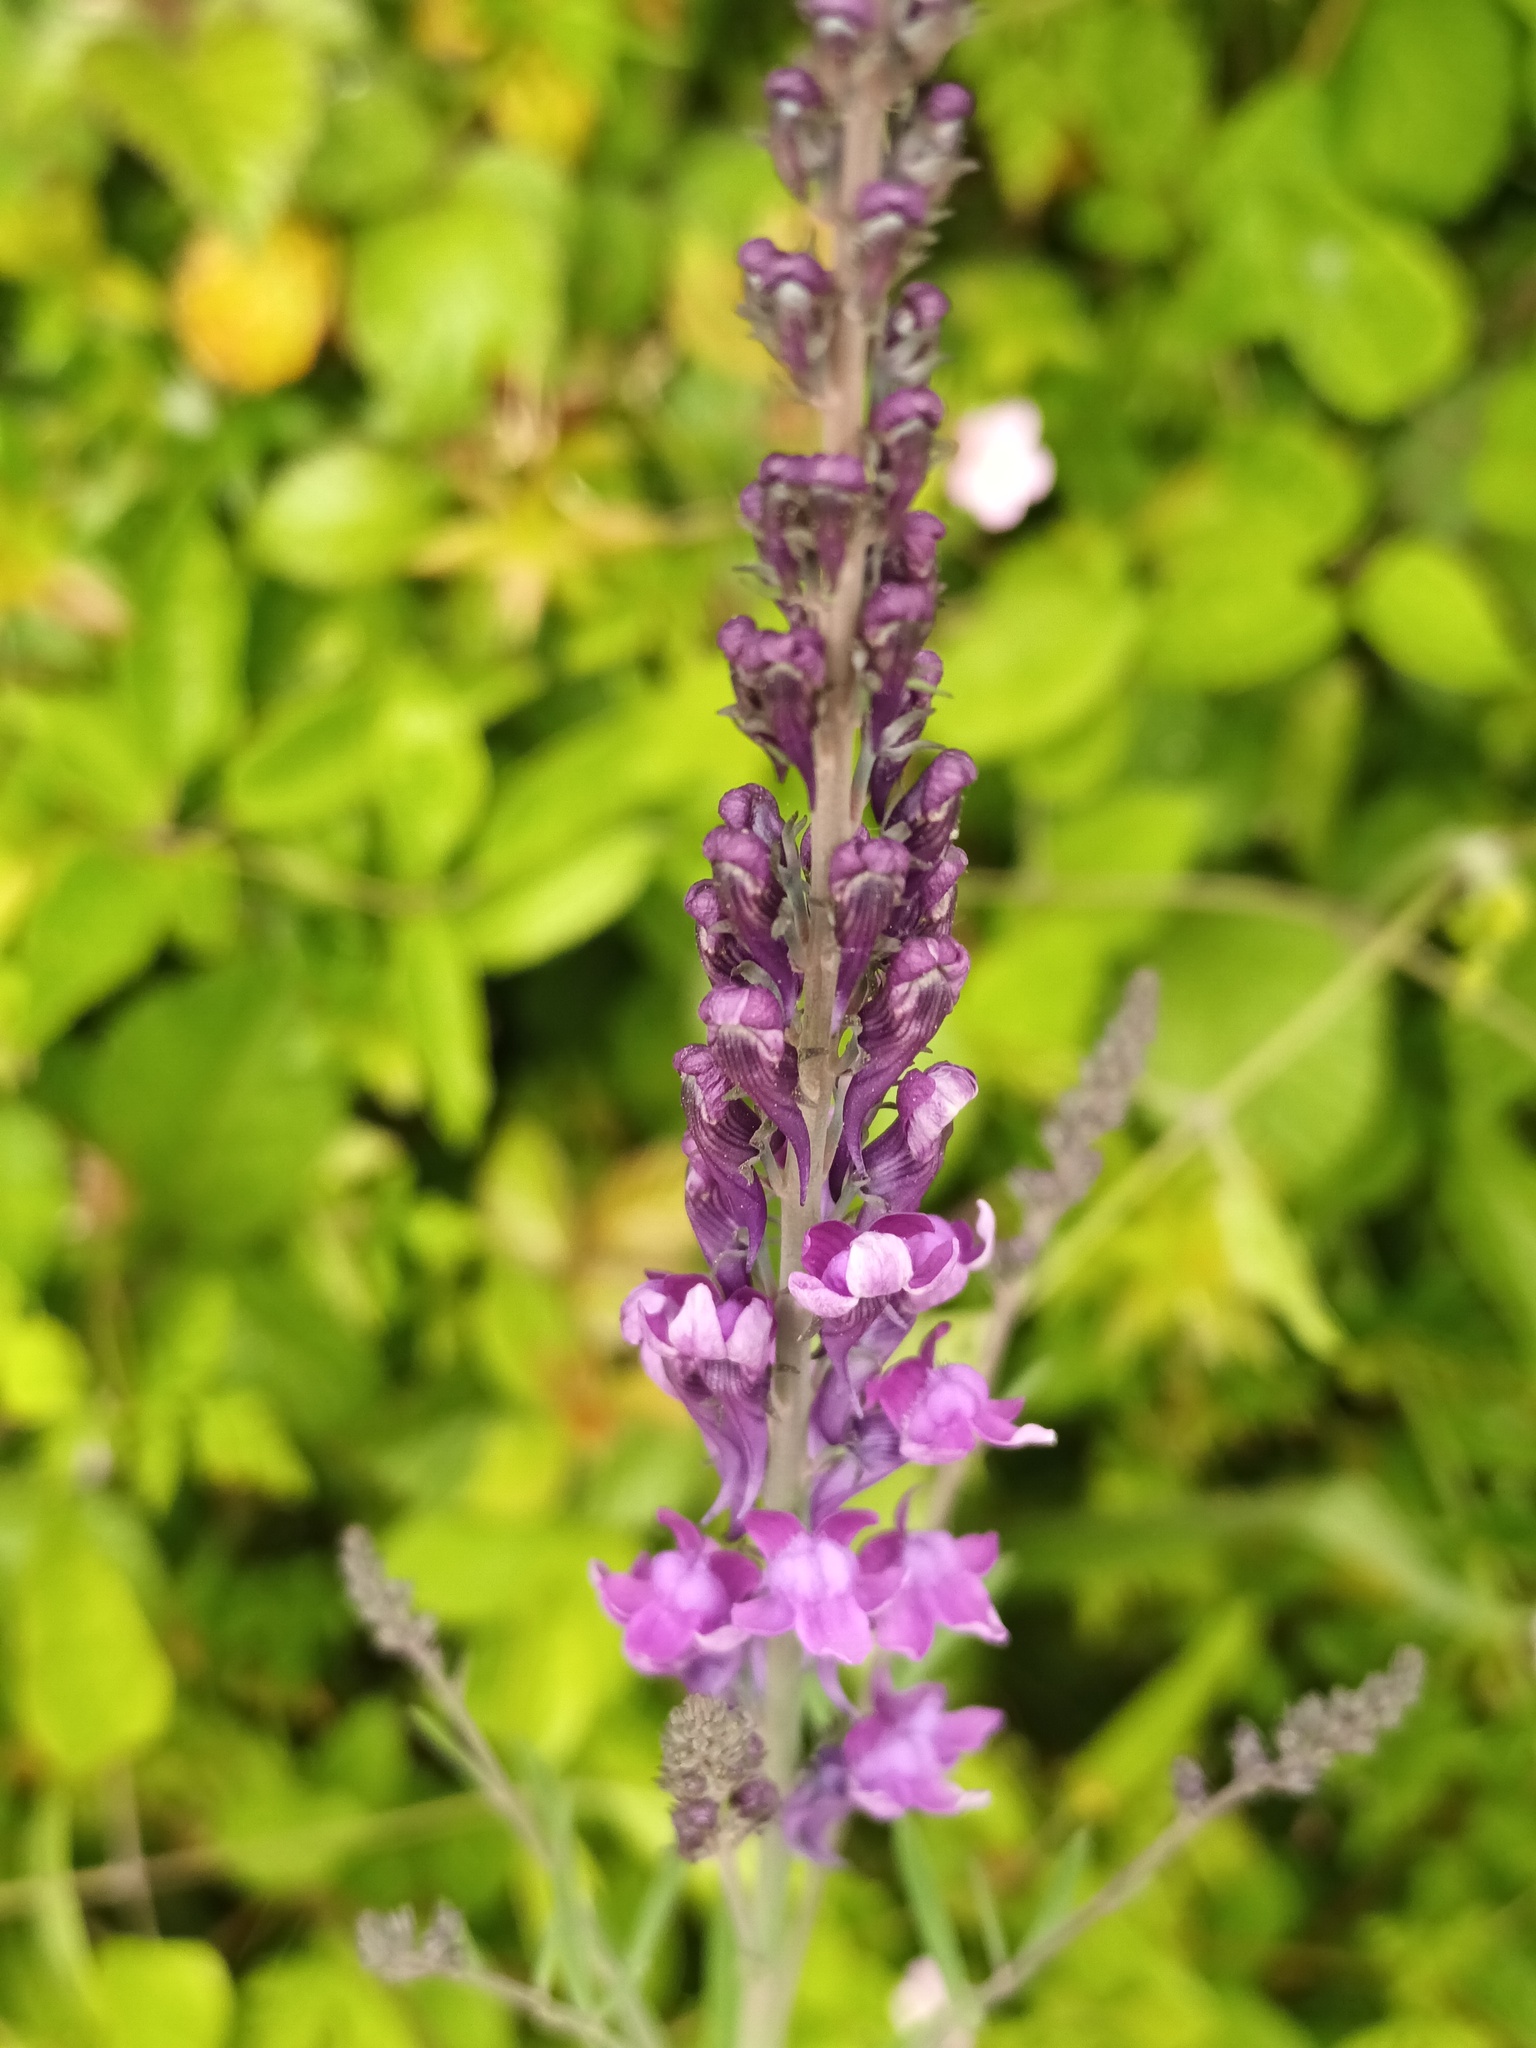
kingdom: Plantae
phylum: Tracheophyta
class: Magnoliopsida
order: Lamiales
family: Plantaginaceae
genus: Linaria
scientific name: Linaria purpurea
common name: Purple toadflax
